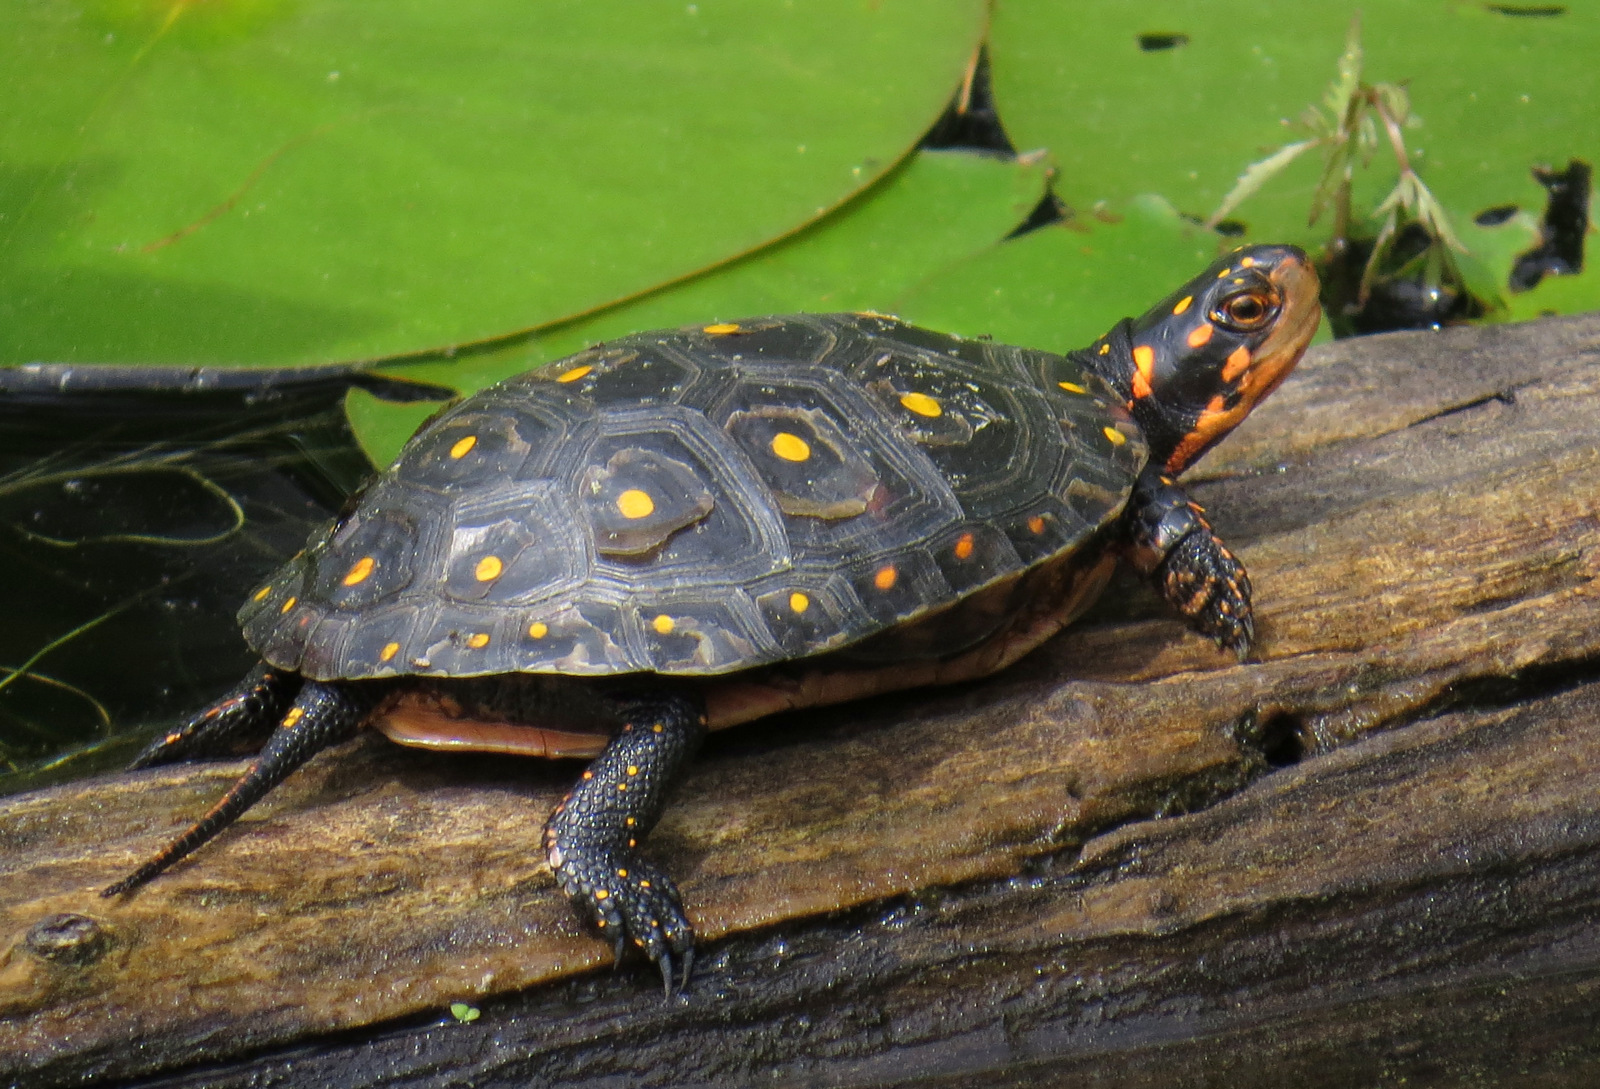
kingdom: Animalia
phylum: Chordata
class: Testudines
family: Emydidae
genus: Clemmys
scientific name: Clemmys guttata
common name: Spotted turtle
